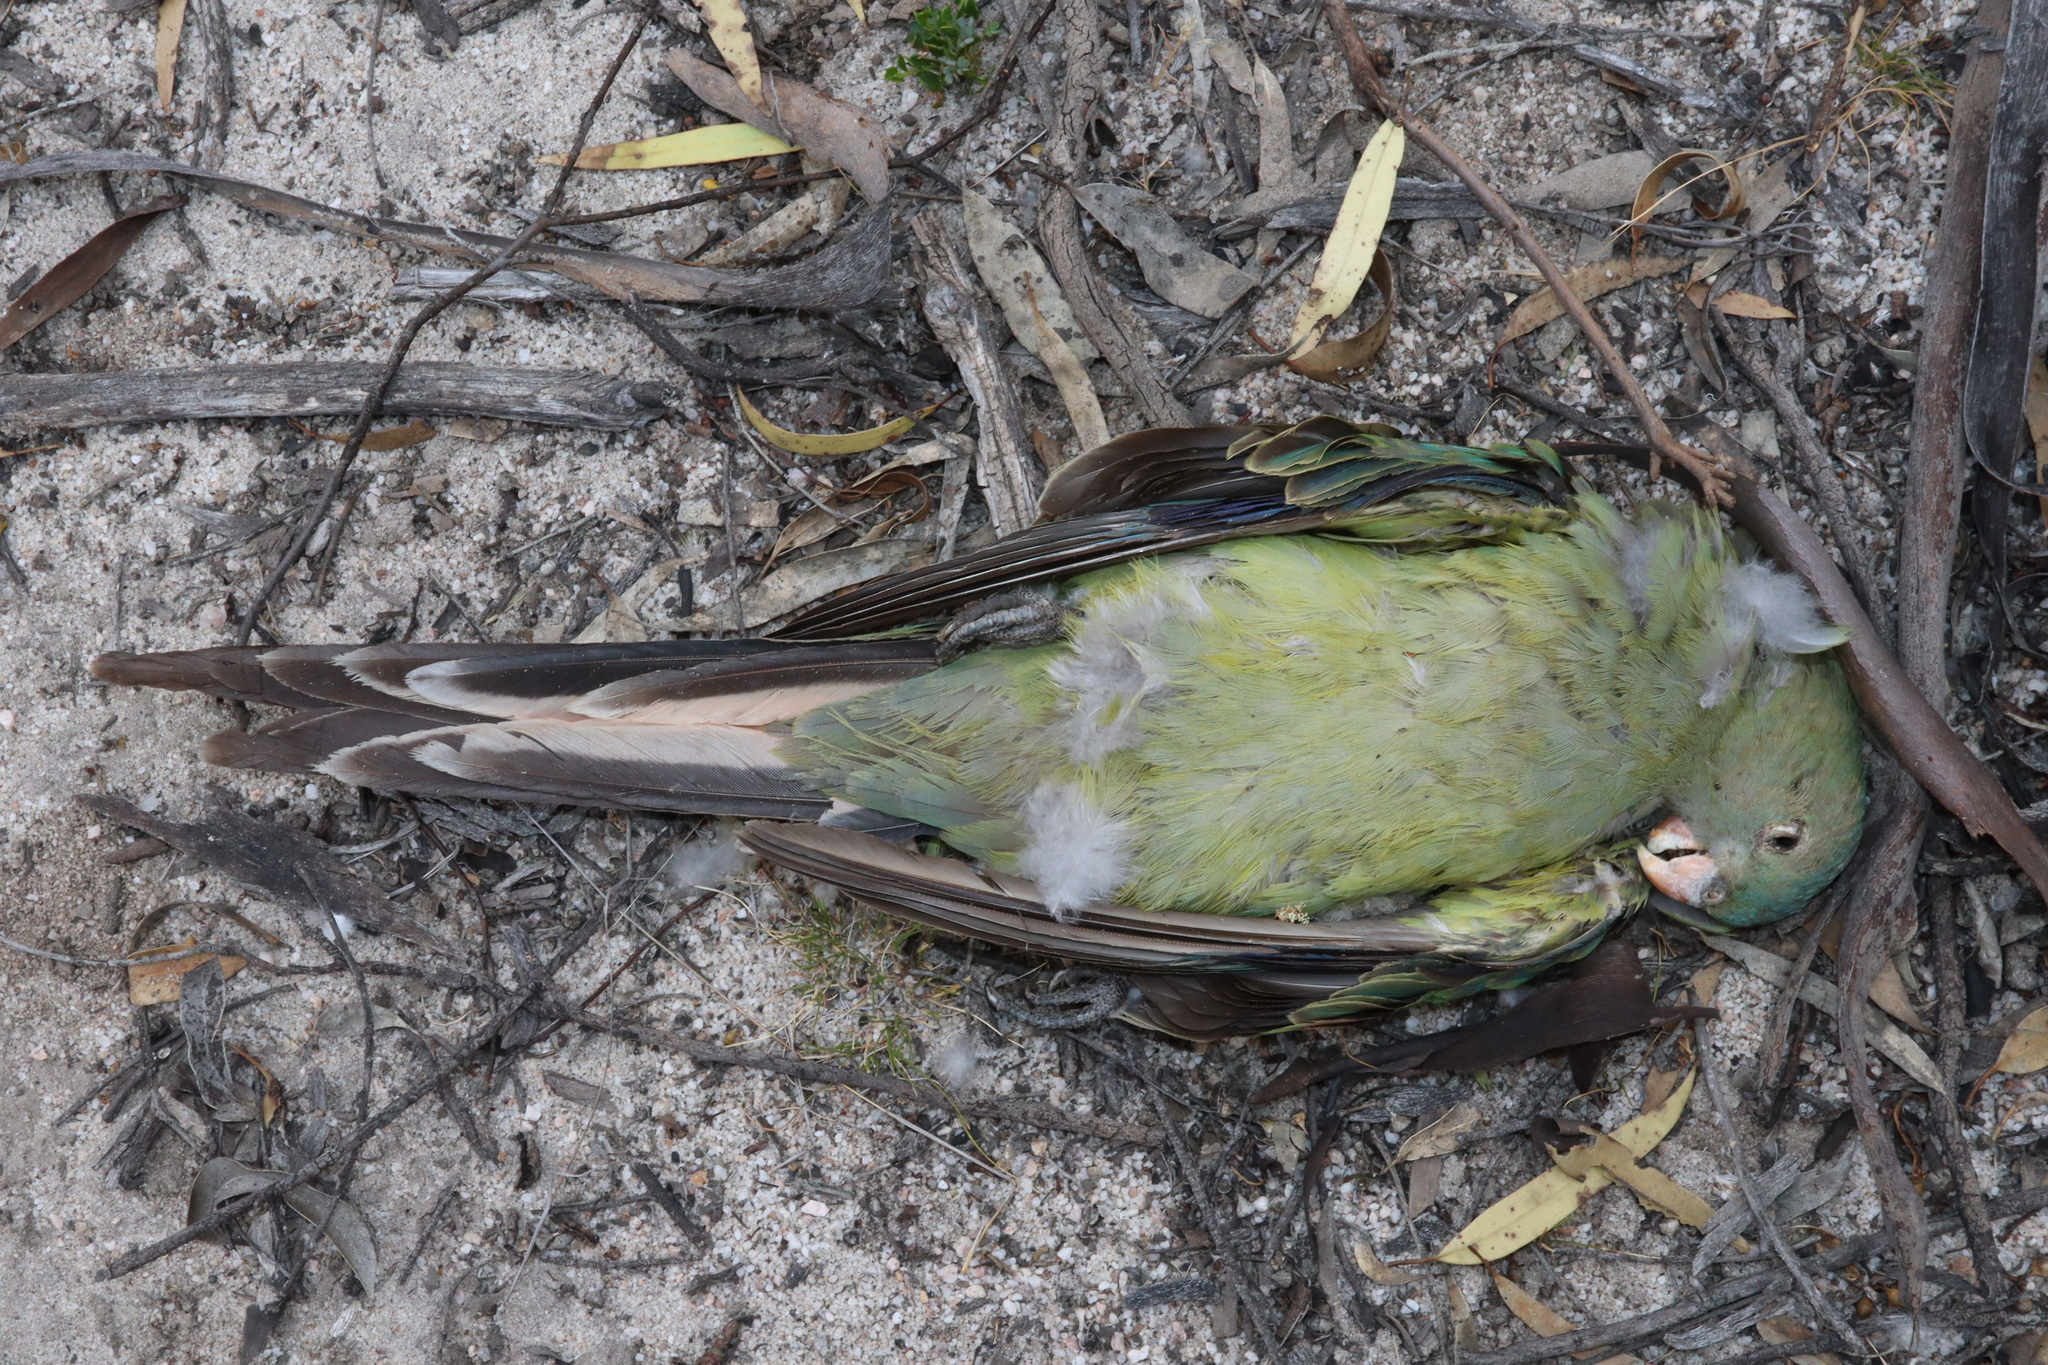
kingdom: Animalia
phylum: Chordata
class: Aves
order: Psittaciformes
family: Psittacidae
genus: Polytelis
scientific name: Polytelis anthopeplus
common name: Regent parrot
